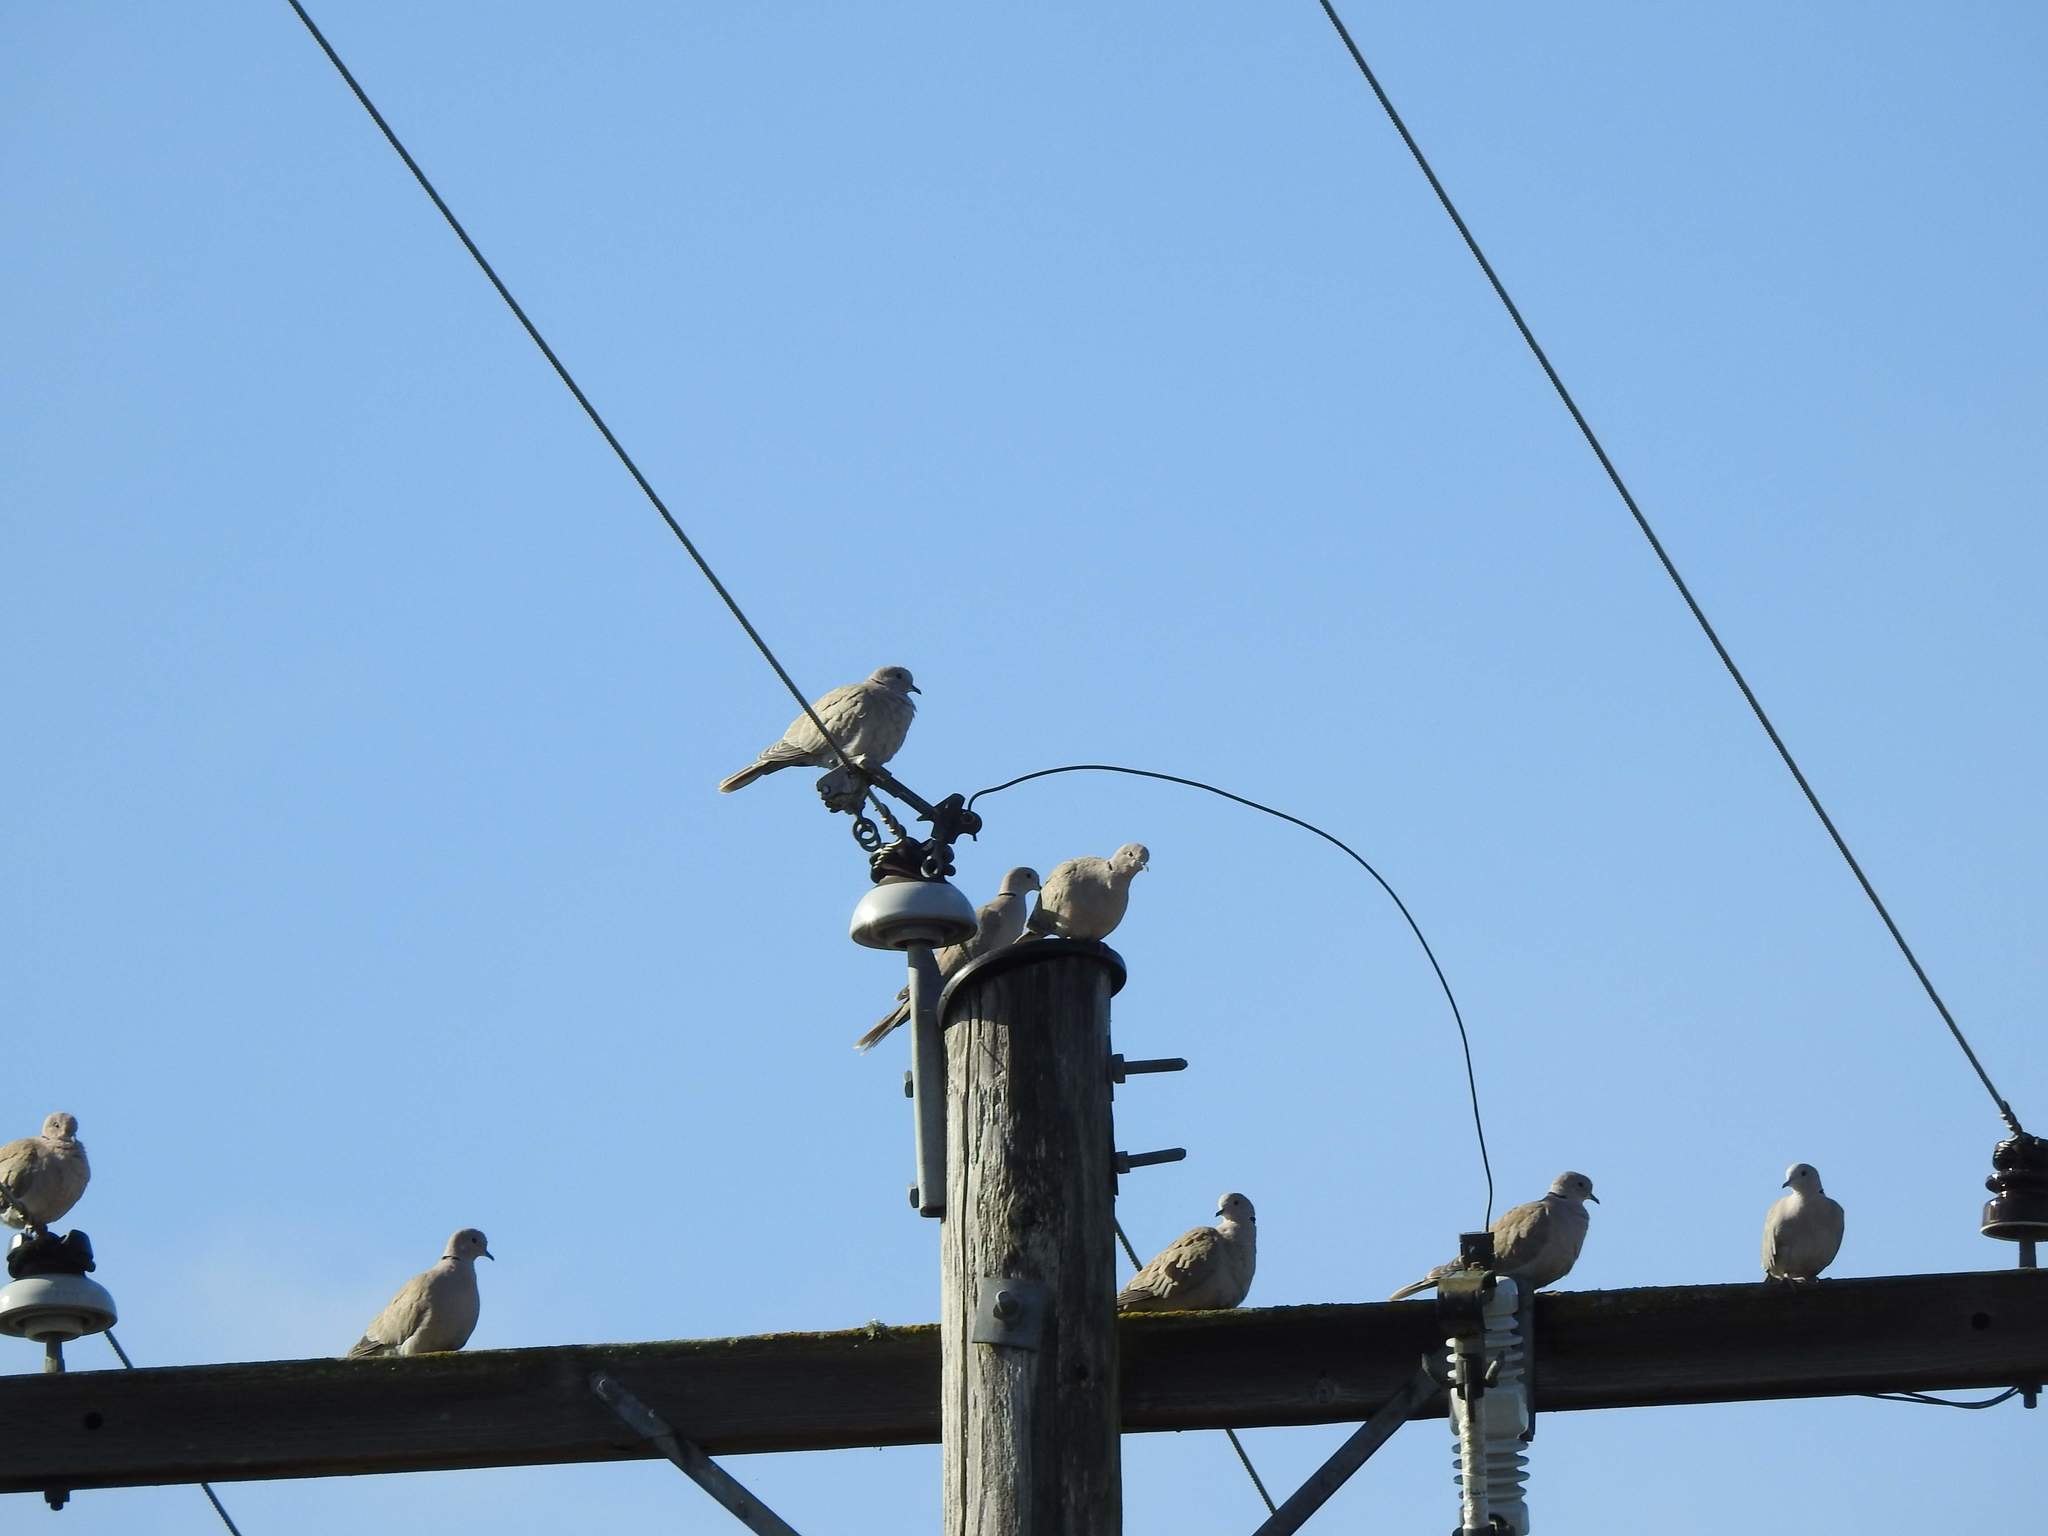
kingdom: Animalia
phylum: Chordata
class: Aves
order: Columbiformes
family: Columbidae
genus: Streptopelia
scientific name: Streptopelia decaocto
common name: Eurasian collared dove
